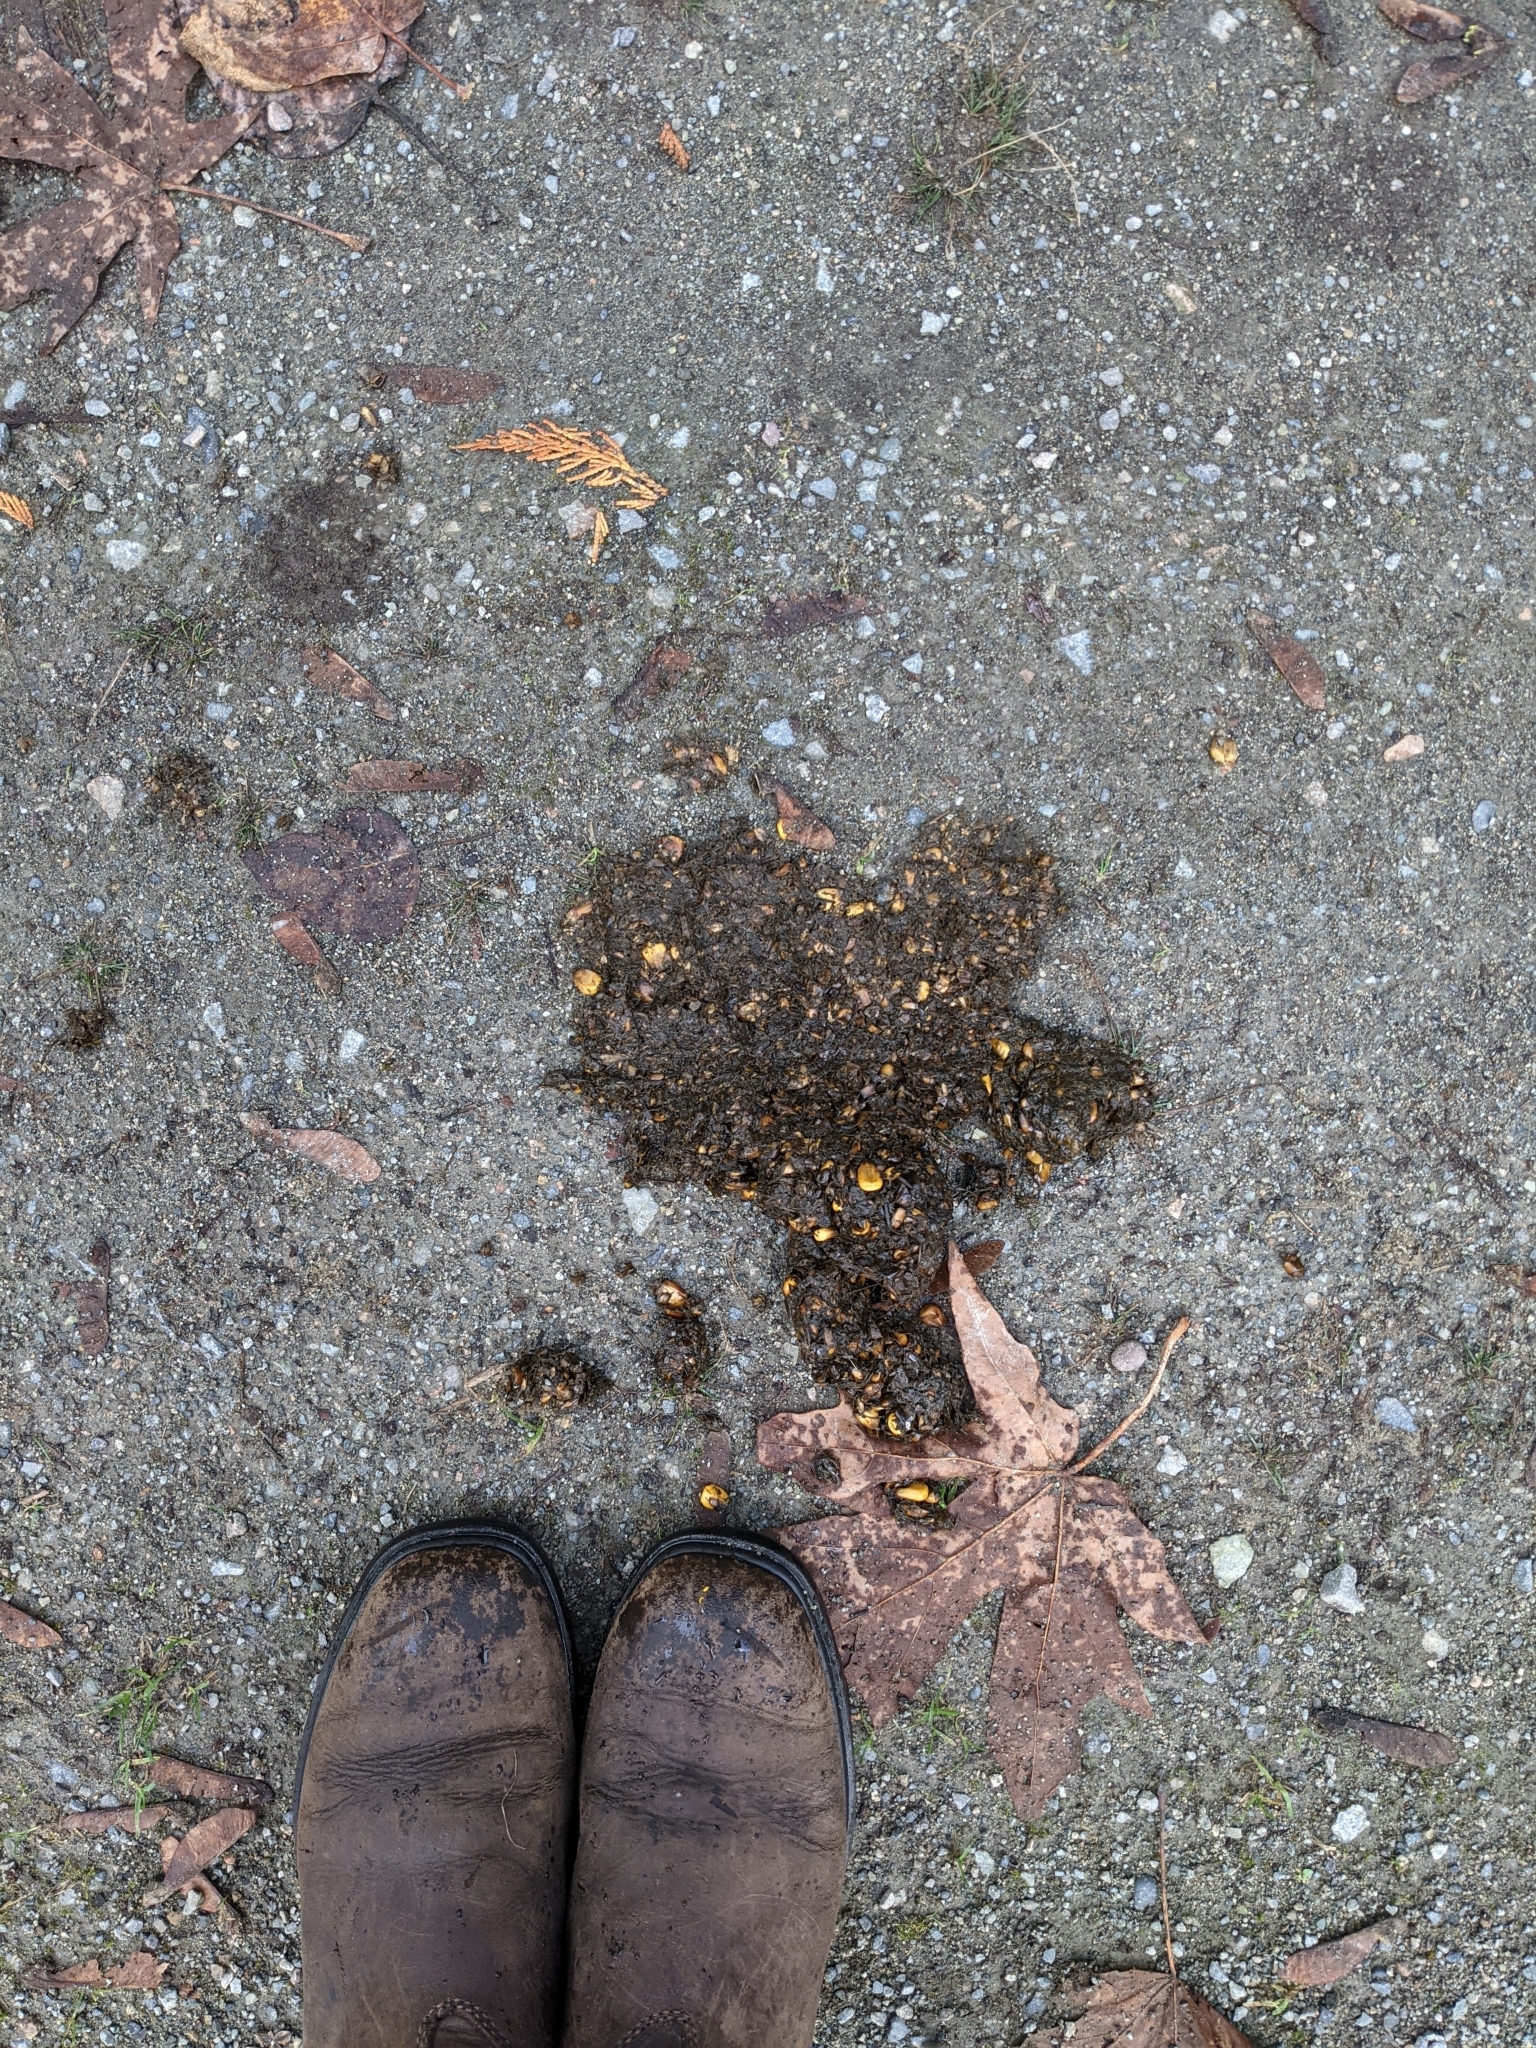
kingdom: Animalia
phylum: Chordata
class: Mammalia
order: Carnivora
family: Ursidae
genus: Ursus
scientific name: Ursus americanus
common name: American black bear
